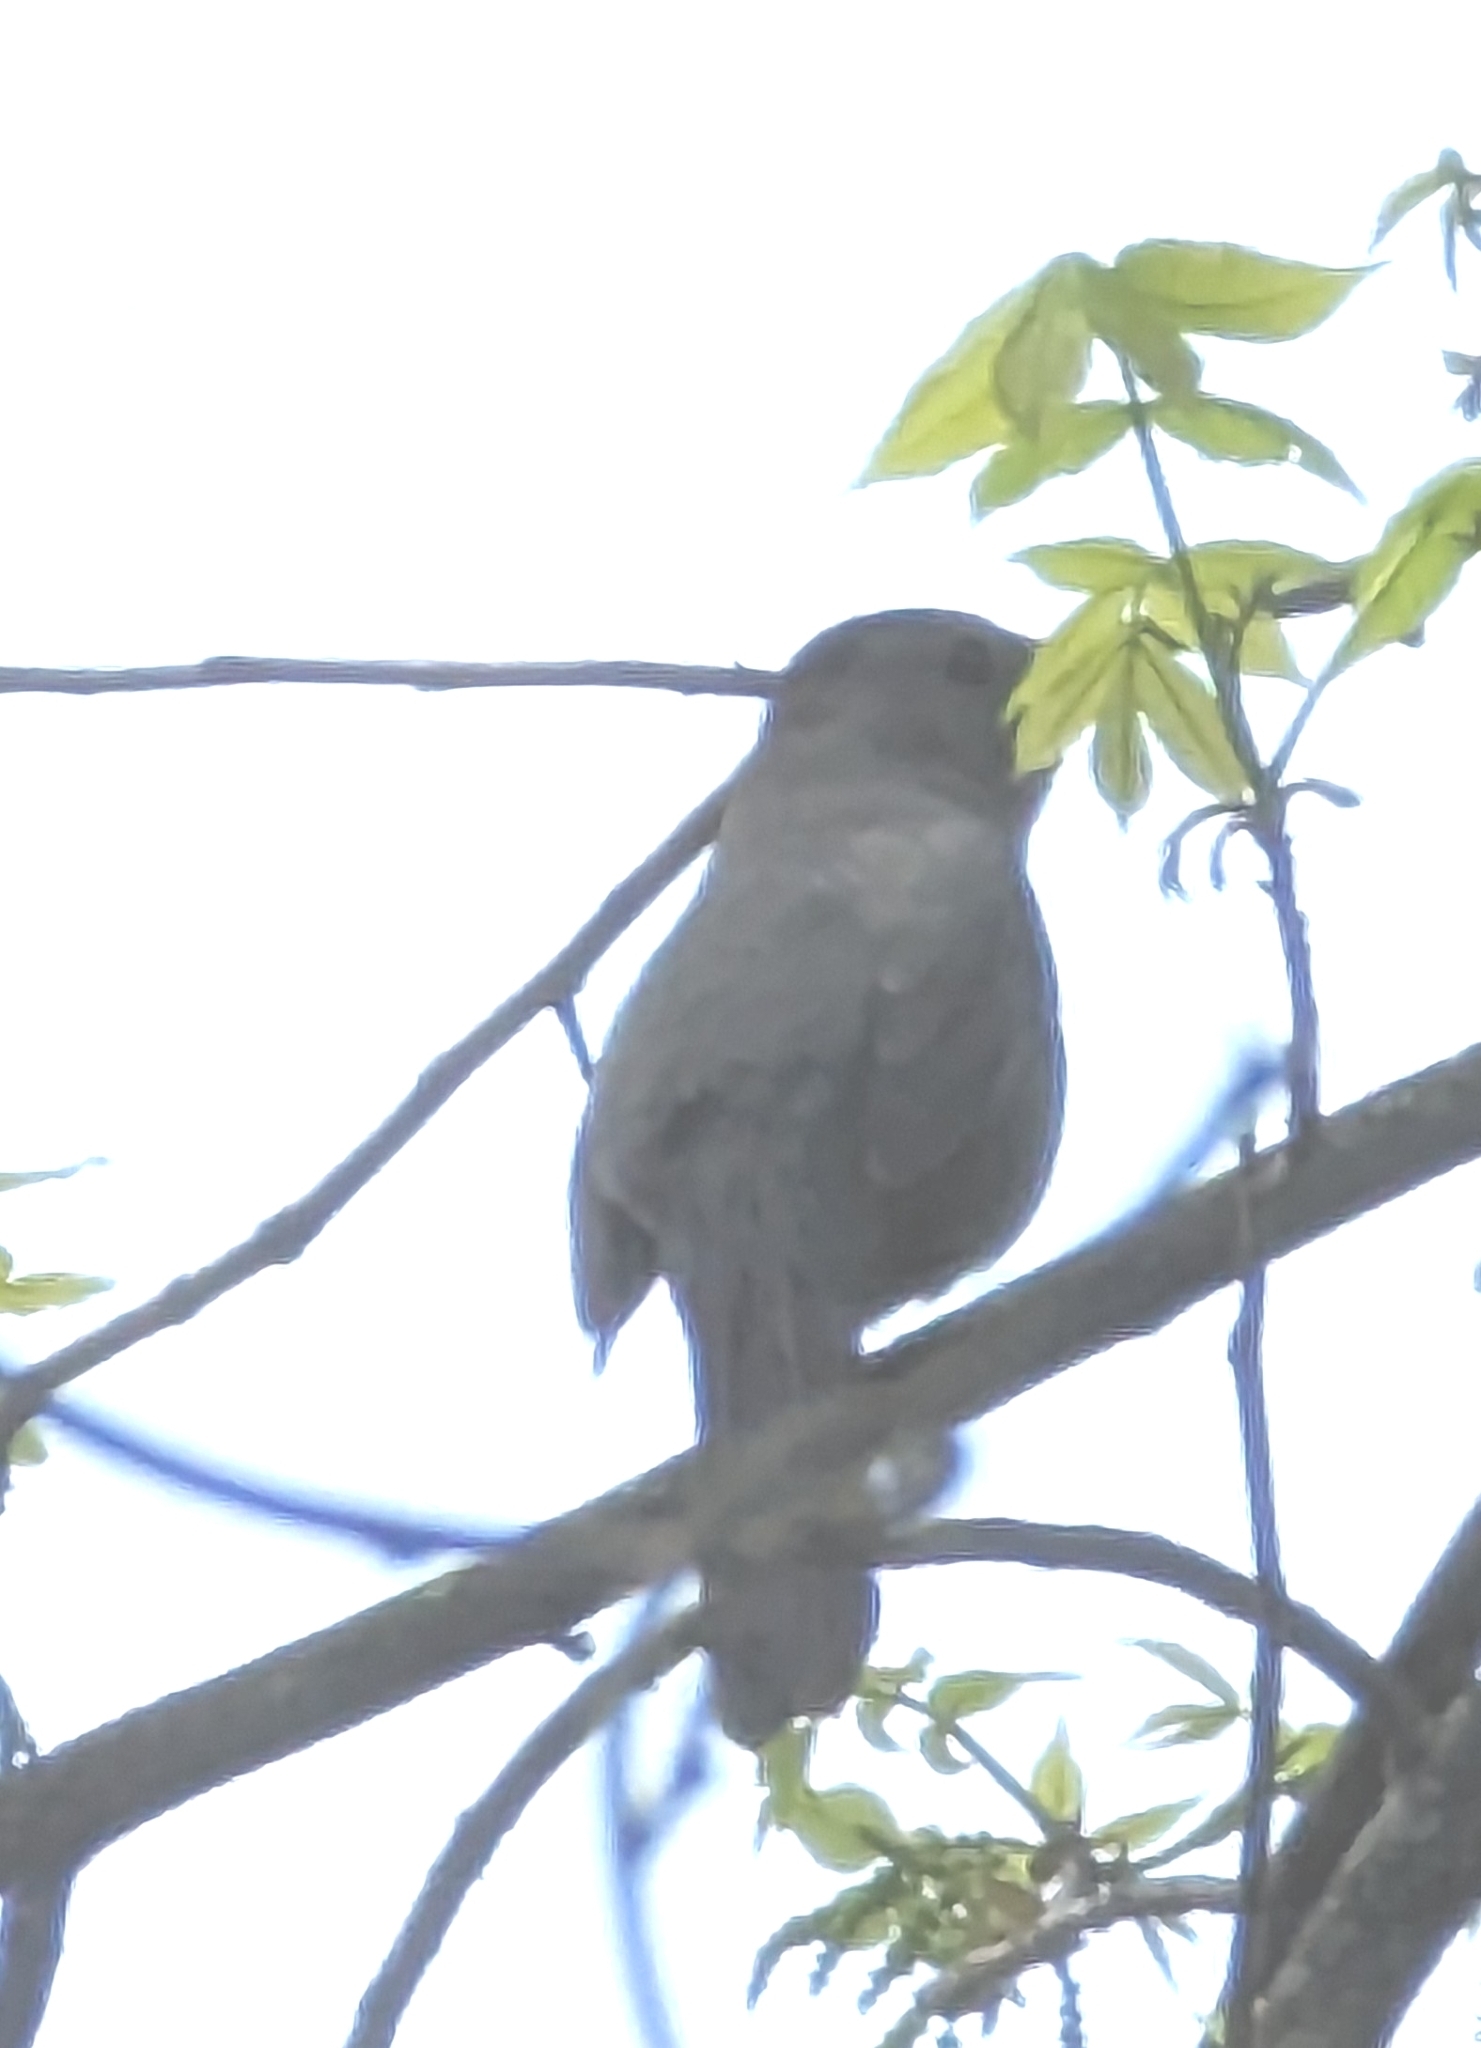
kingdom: Animalia
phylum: Chordata
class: Aves
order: Passeriformes
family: Mimidae
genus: Dumetella
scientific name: Dumetella carolinensis
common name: Gray catbird
